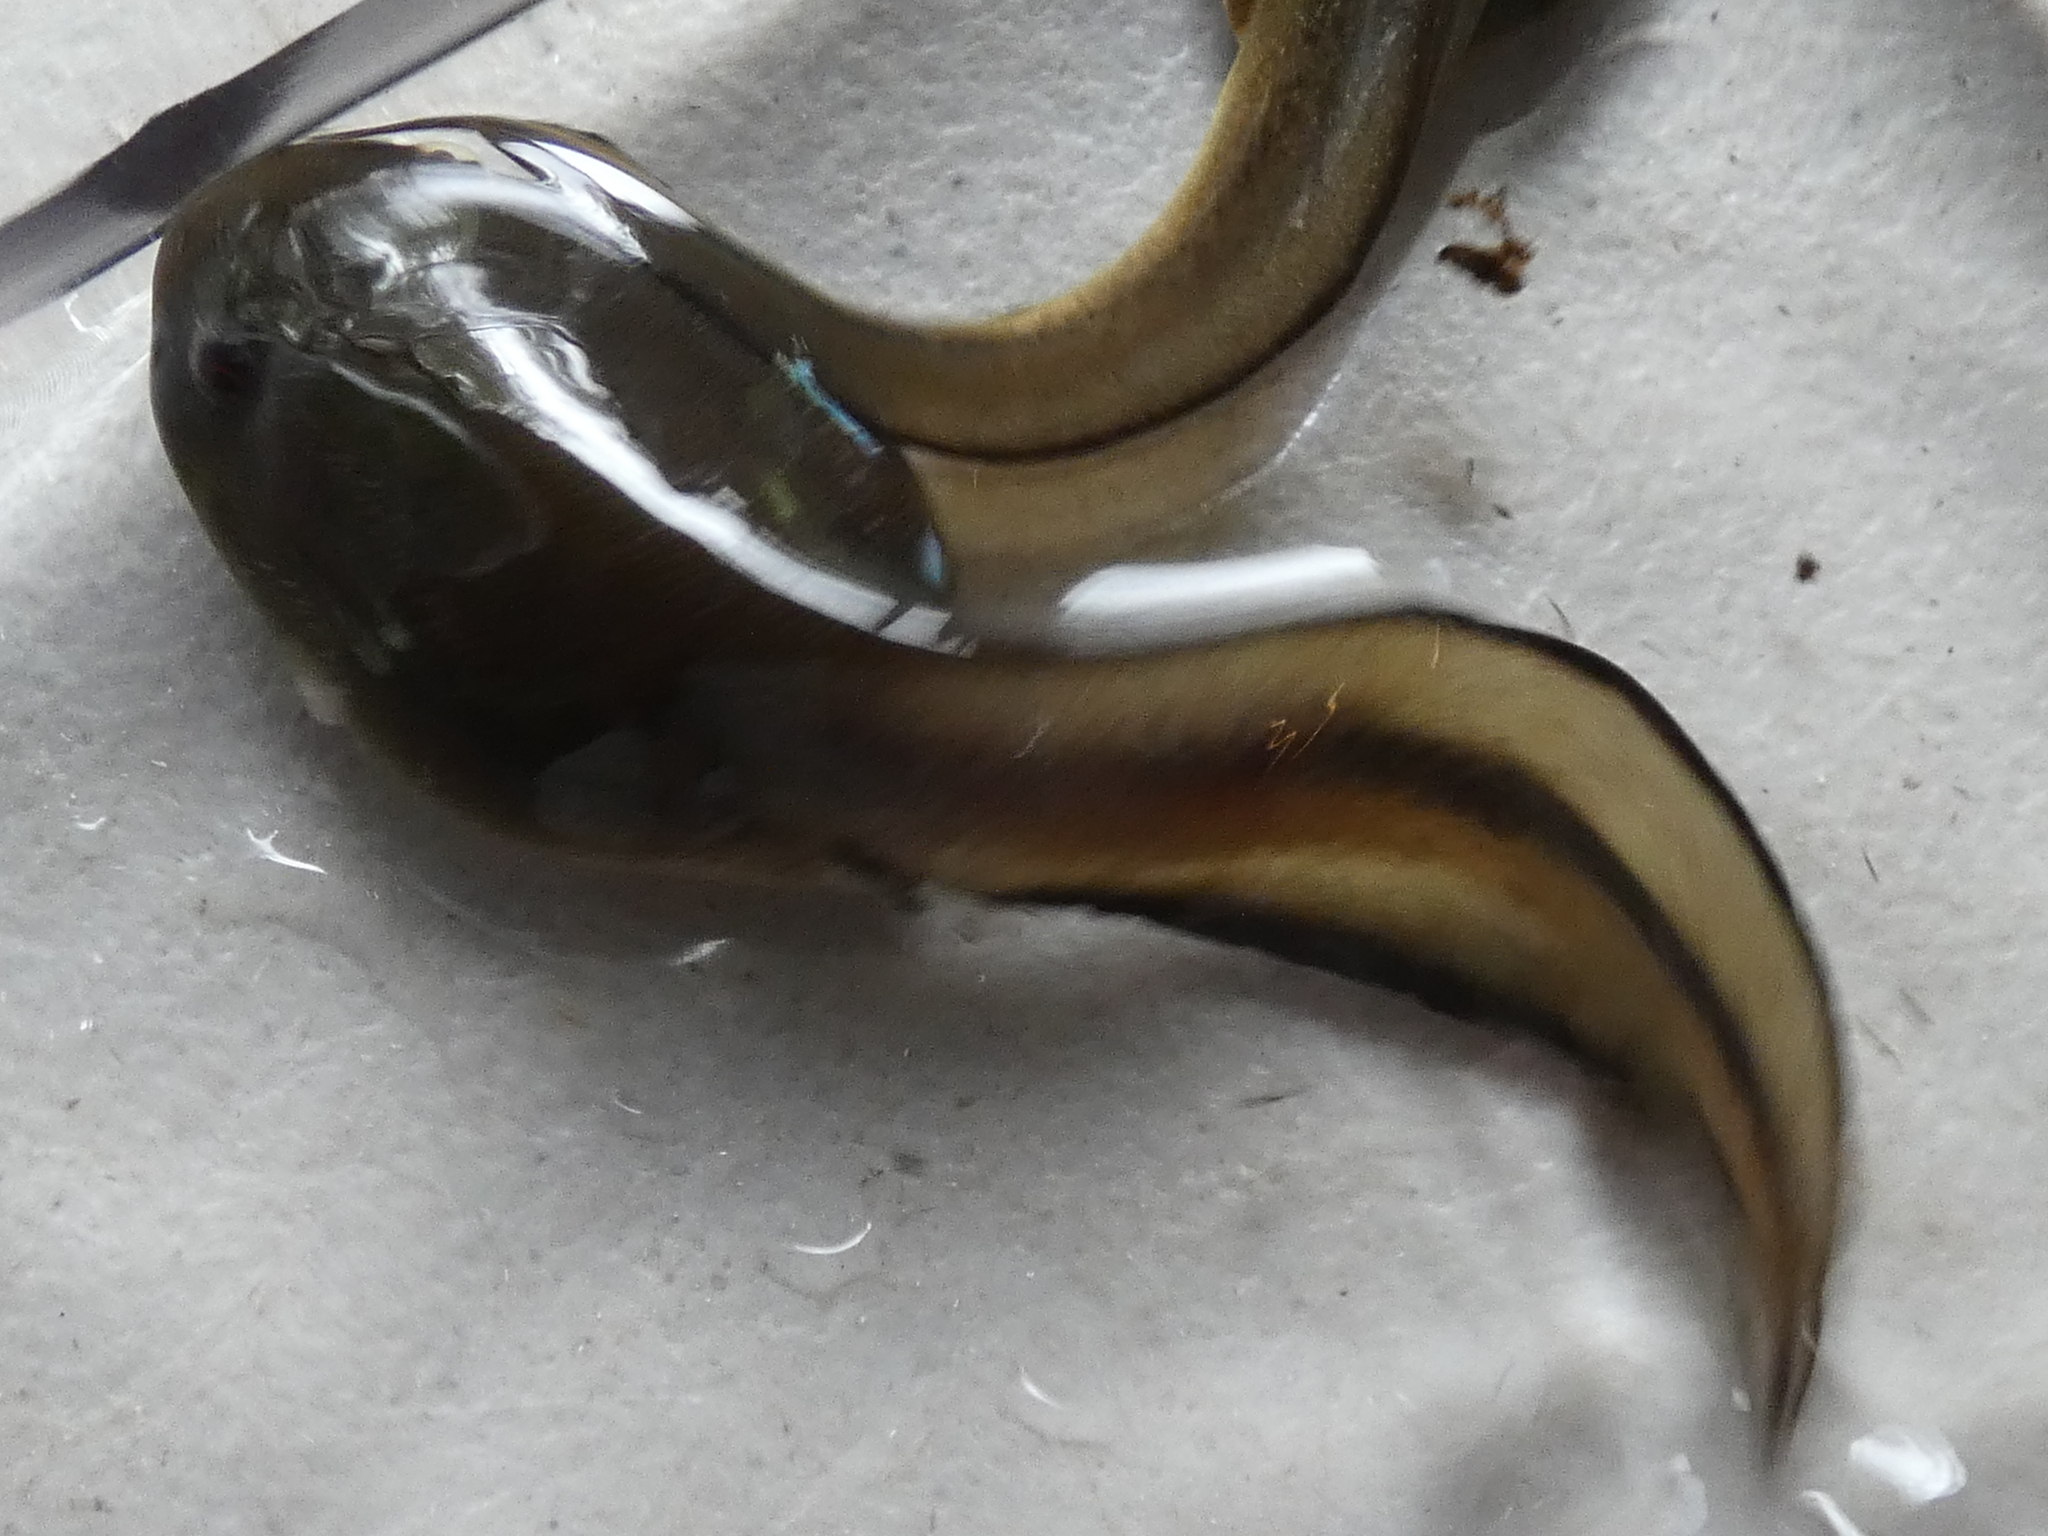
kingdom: Animalia
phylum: Chordata
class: Amphibia
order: Anura
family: Ranidae
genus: Lithobates
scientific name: Lithobates heckscheri
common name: River frog
